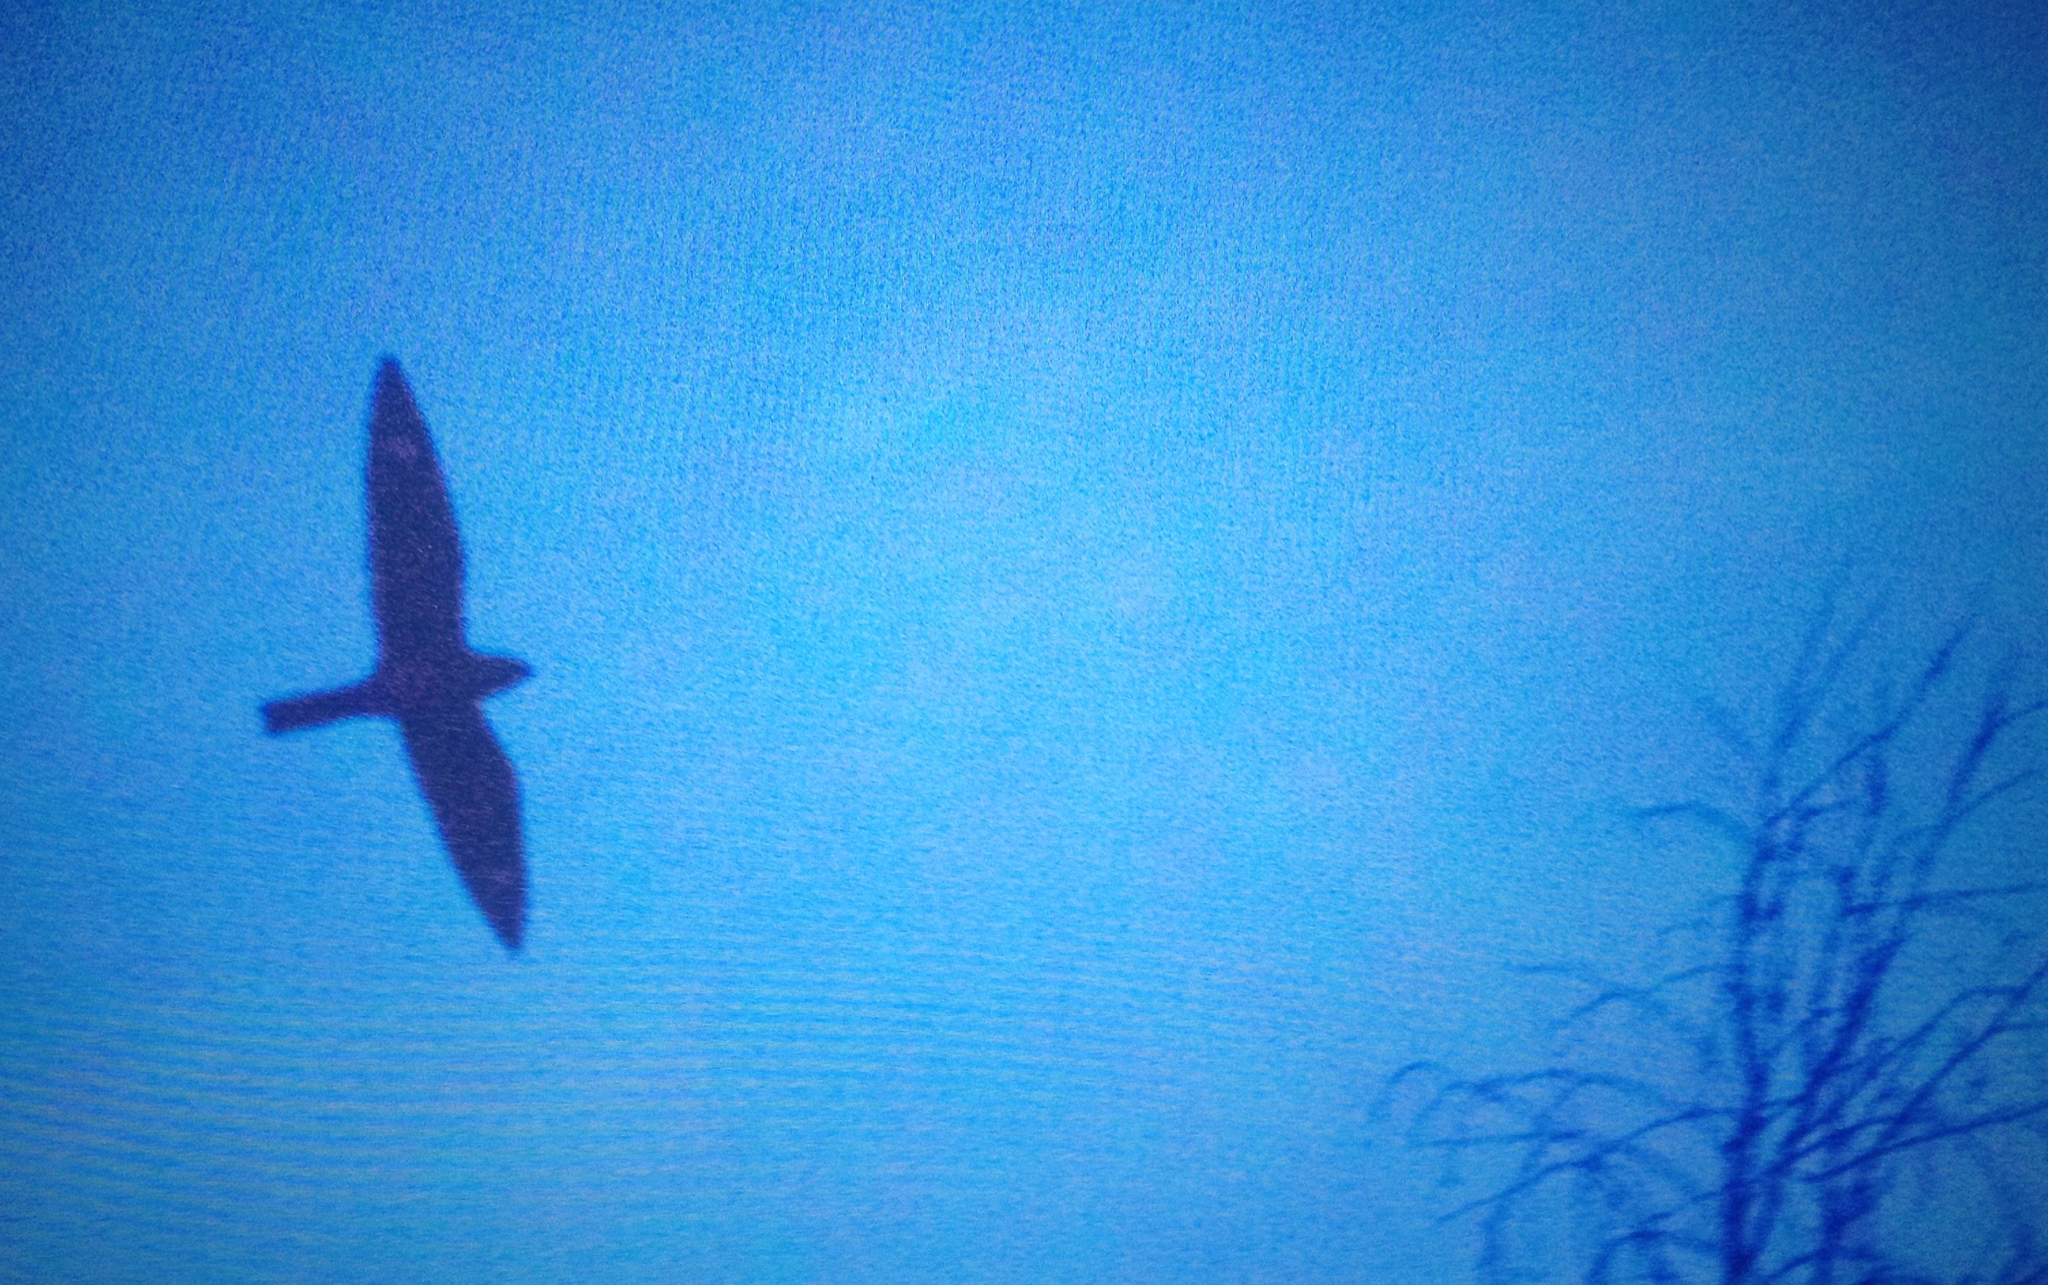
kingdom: Animalia
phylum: Chordata
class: Aves
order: Caprimulgiformes
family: Caprimulgidae
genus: Chordeiles
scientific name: Chordeiles minor
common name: Common nighthawk
